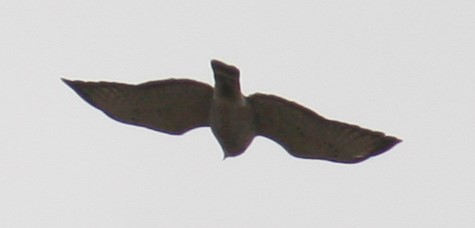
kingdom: Animalia
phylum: Chordata
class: Aves
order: Accipitriformes
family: Accipitridae
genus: Buteo
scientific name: Buteo platypterus
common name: Broad-winged hawk
